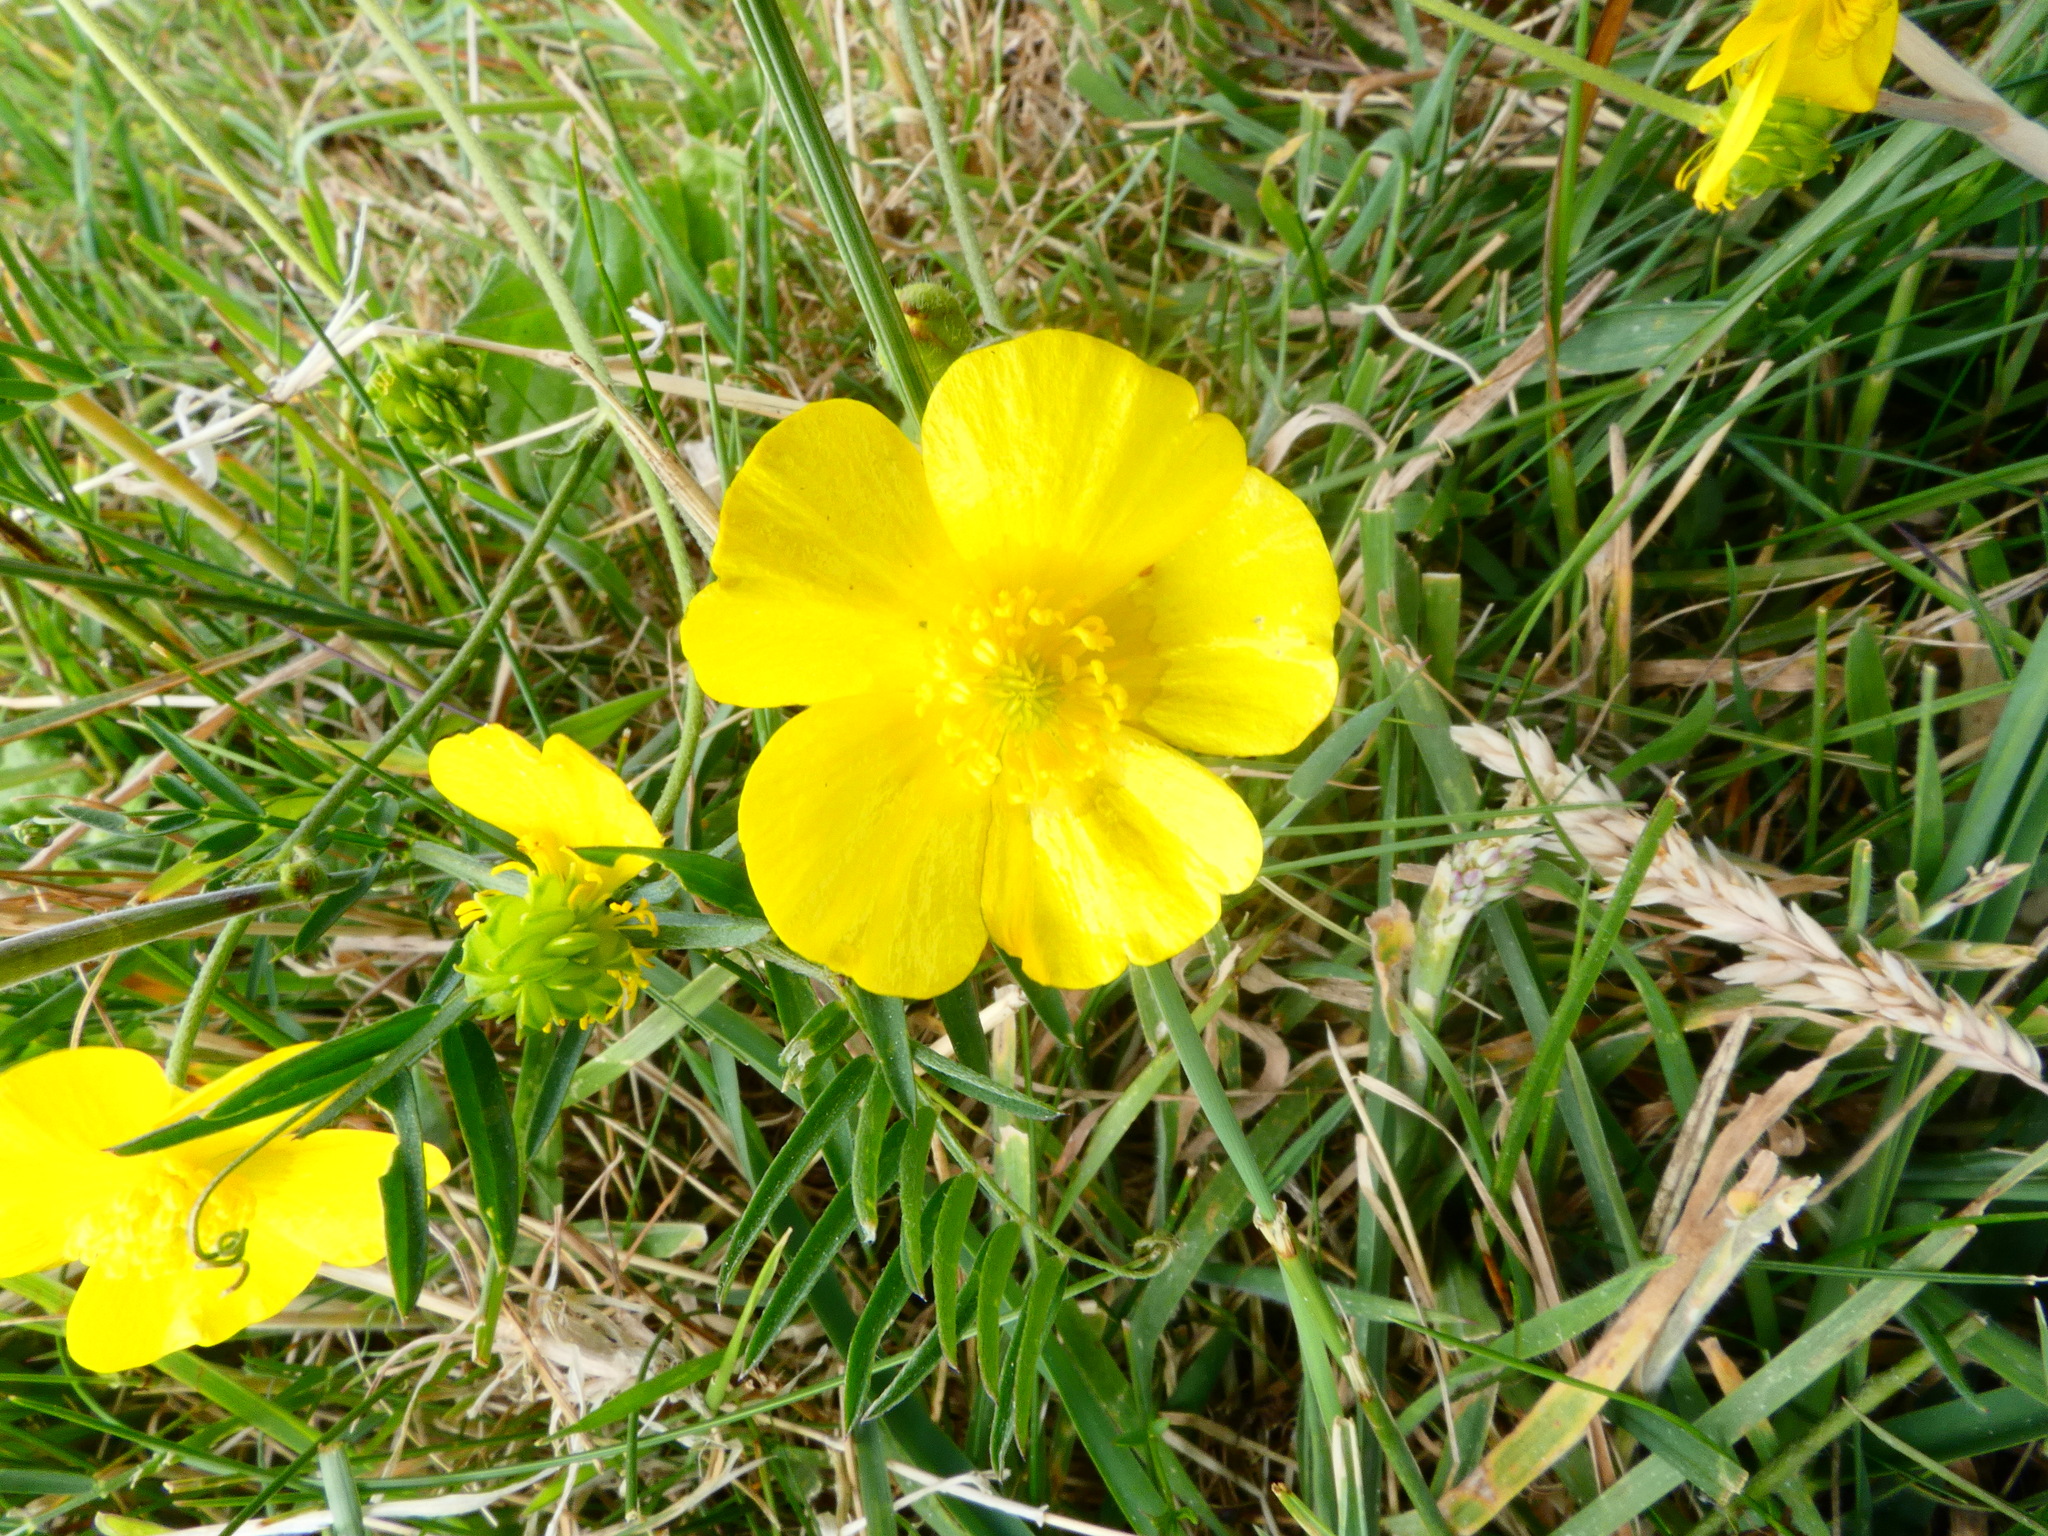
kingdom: Plantae
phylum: Tracheophyta
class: Magnoliopsida
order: Ranunculales
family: Ranunculaceae
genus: Ranunculus
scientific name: Ranunculus acris
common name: Meadow buttercup
